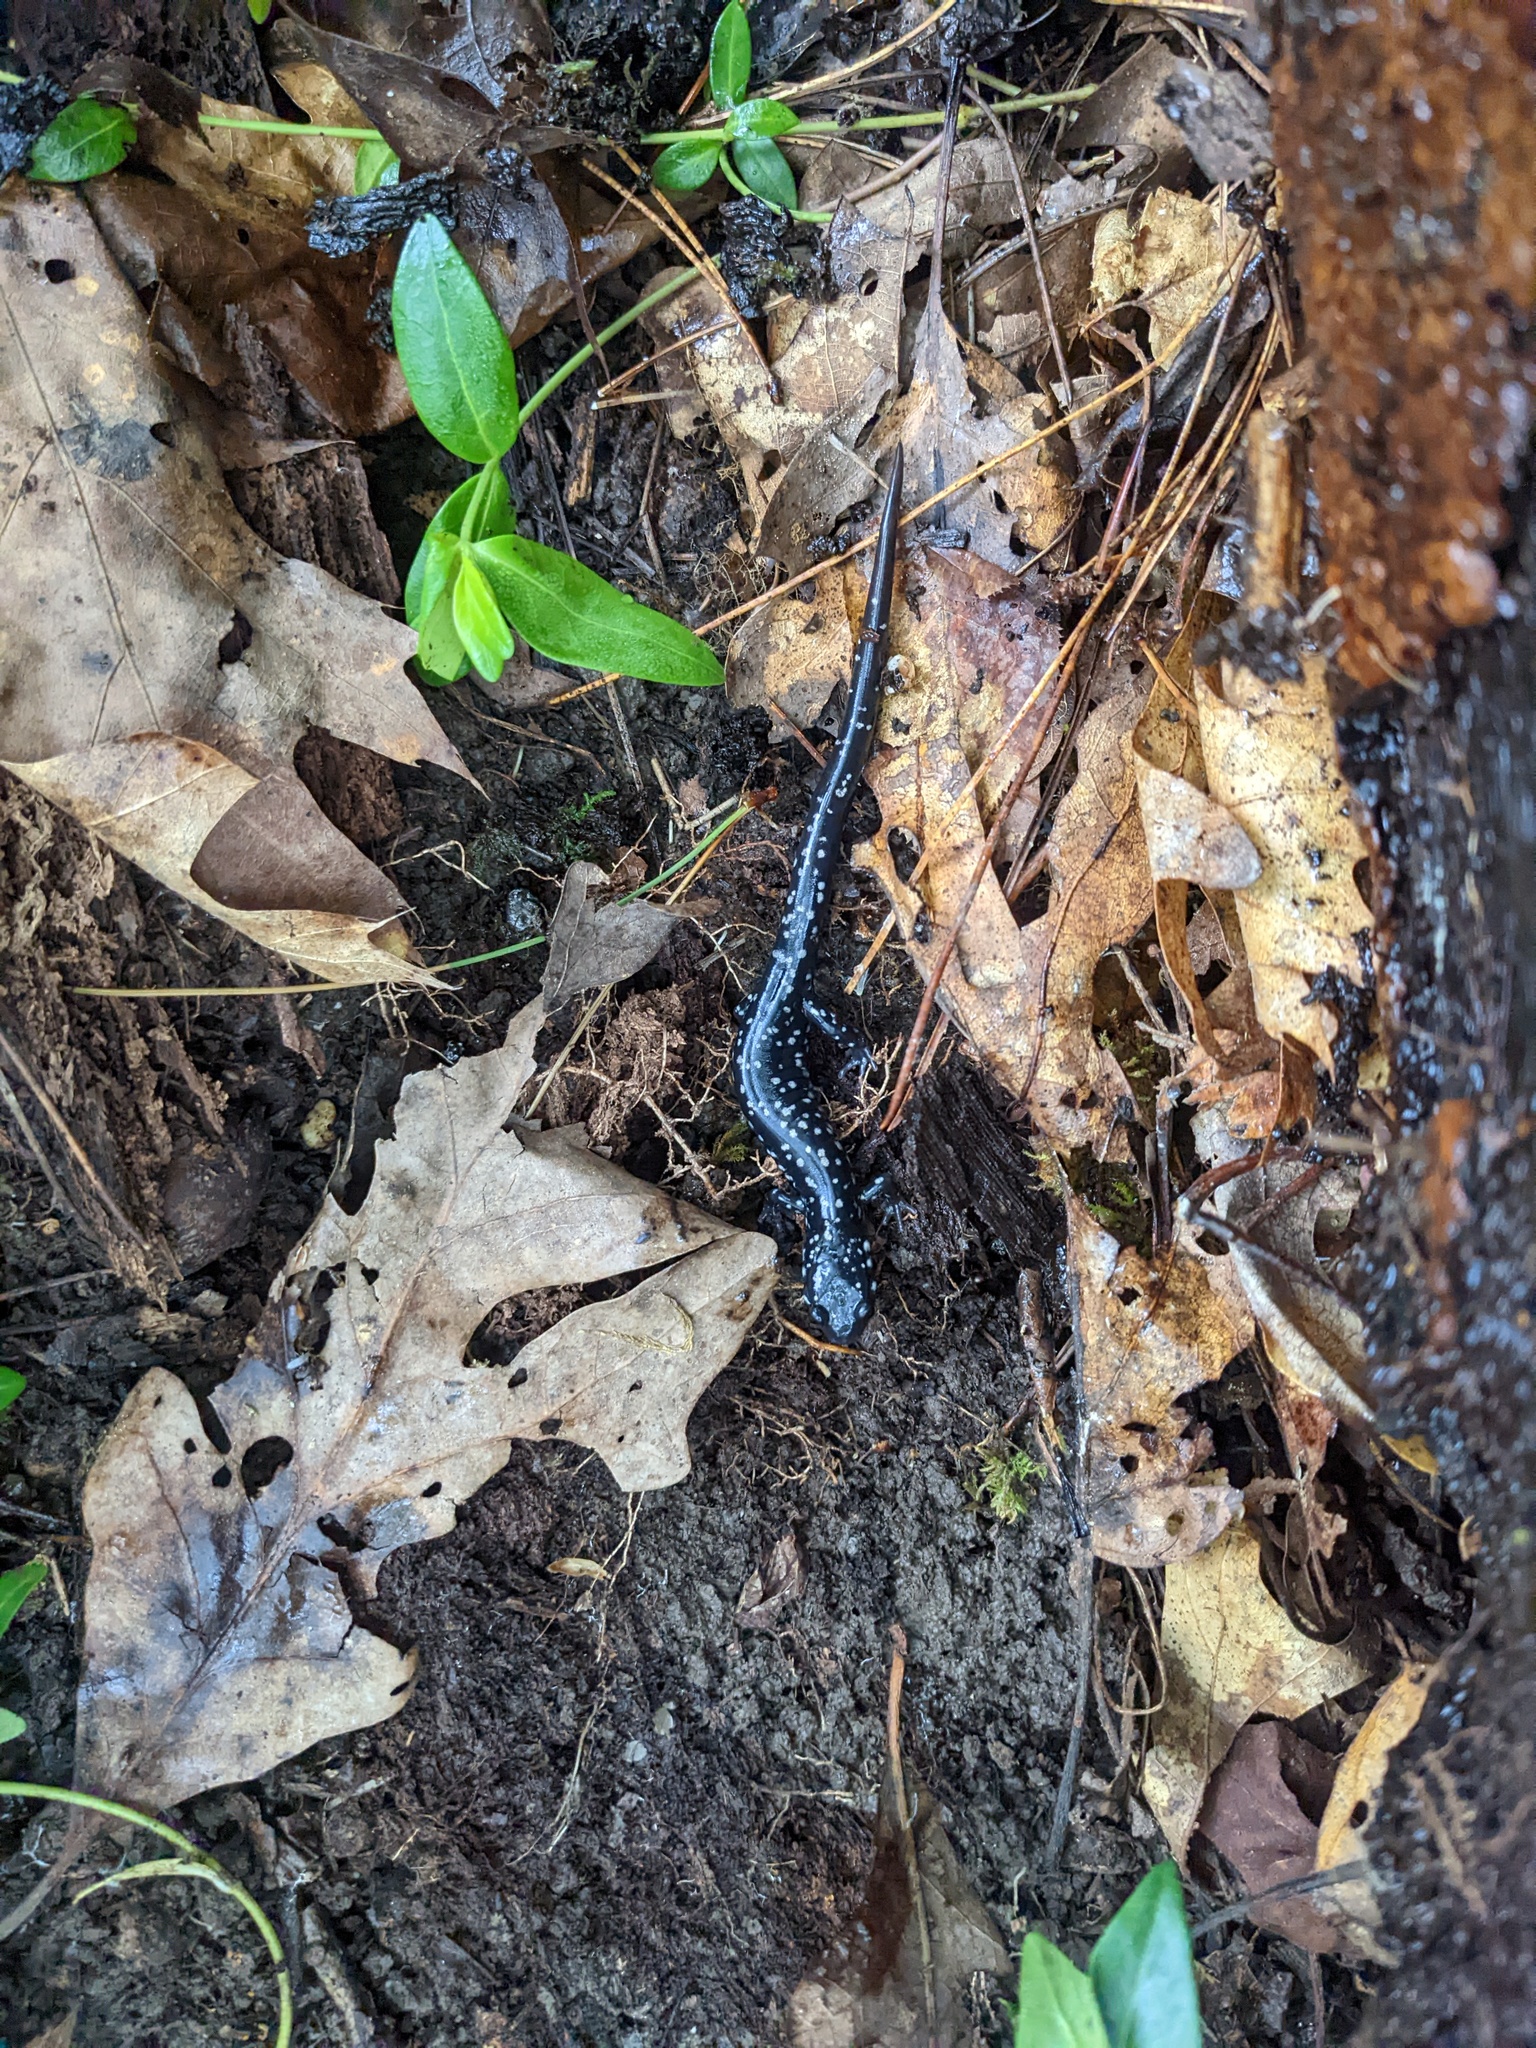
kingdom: Animalia
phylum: Chordata
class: Amphibia
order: Caudata
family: Plethodontidae
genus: Plethodon
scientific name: Plethodon glutinosus
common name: Northern slimy salamander
